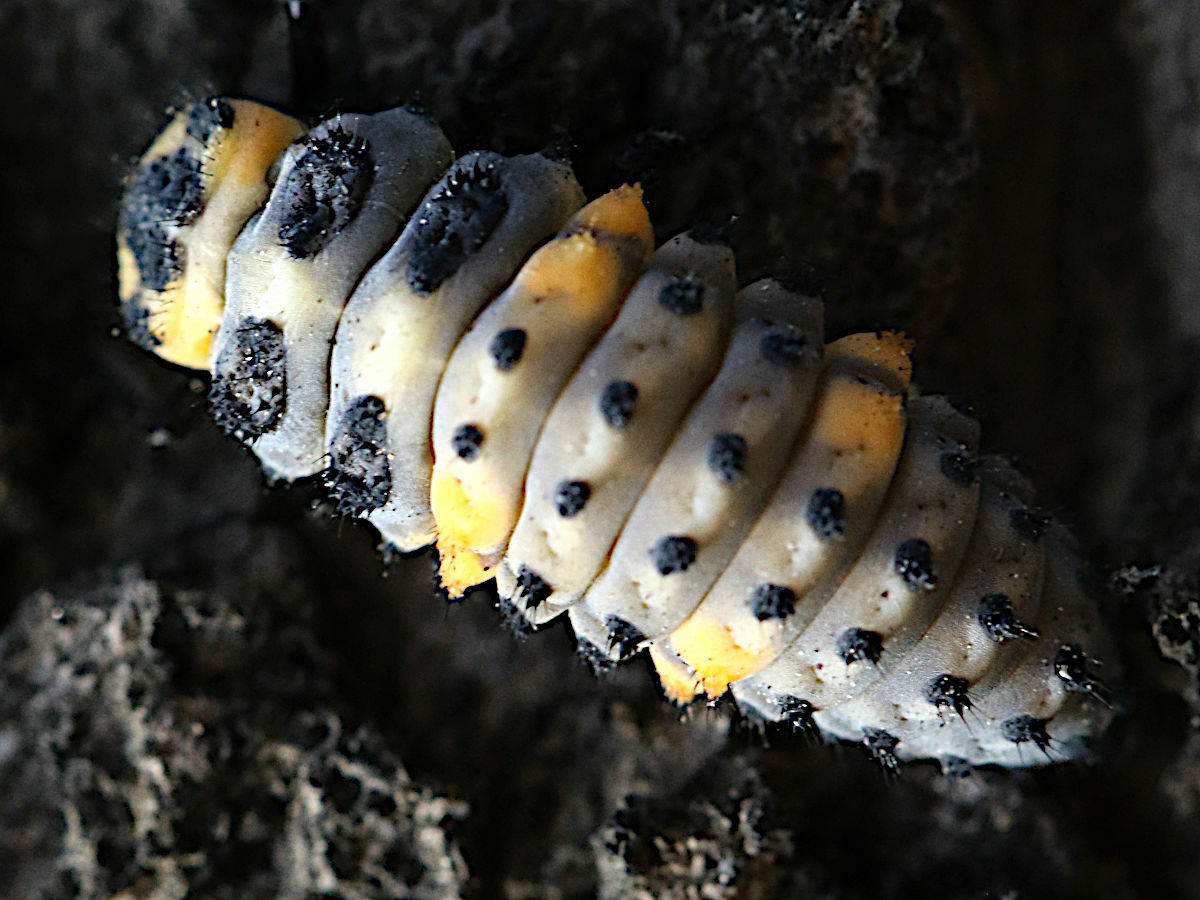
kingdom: Animalia
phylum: Arthropoda
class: Insecta
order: Coleoptera
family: Coccinellidae
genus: Coccinella
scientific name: Coccinella septempunctata
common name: Sevenspotted lady beetle
